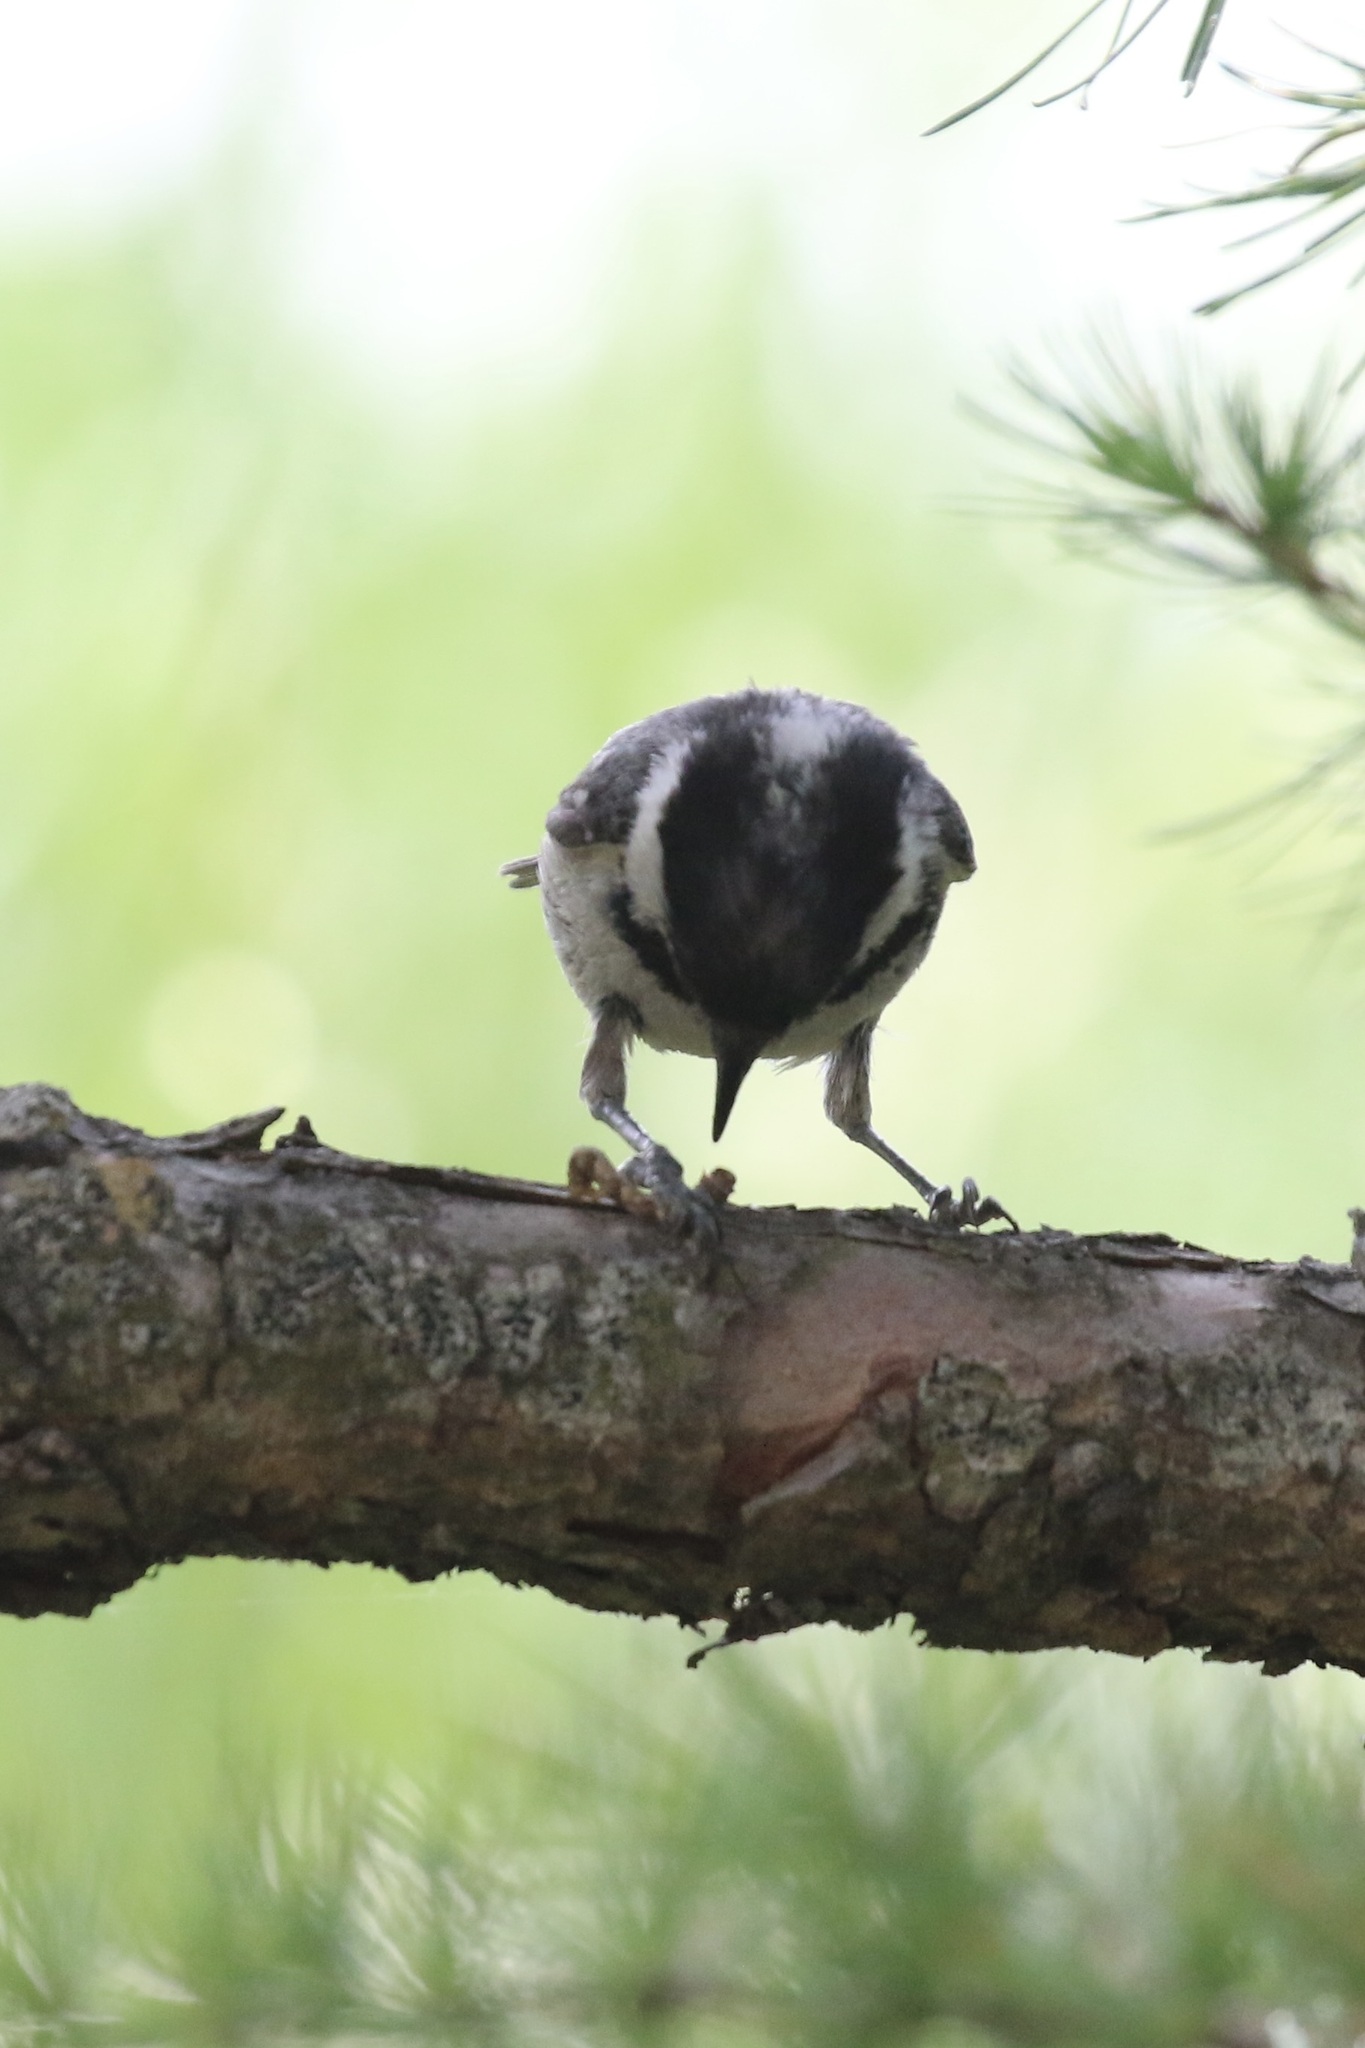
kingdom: Animalia
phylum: Chordata
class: Aves
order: Passeriformes
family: Paridae
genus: Periparus
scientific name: Periparus ater
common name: Coal tit
